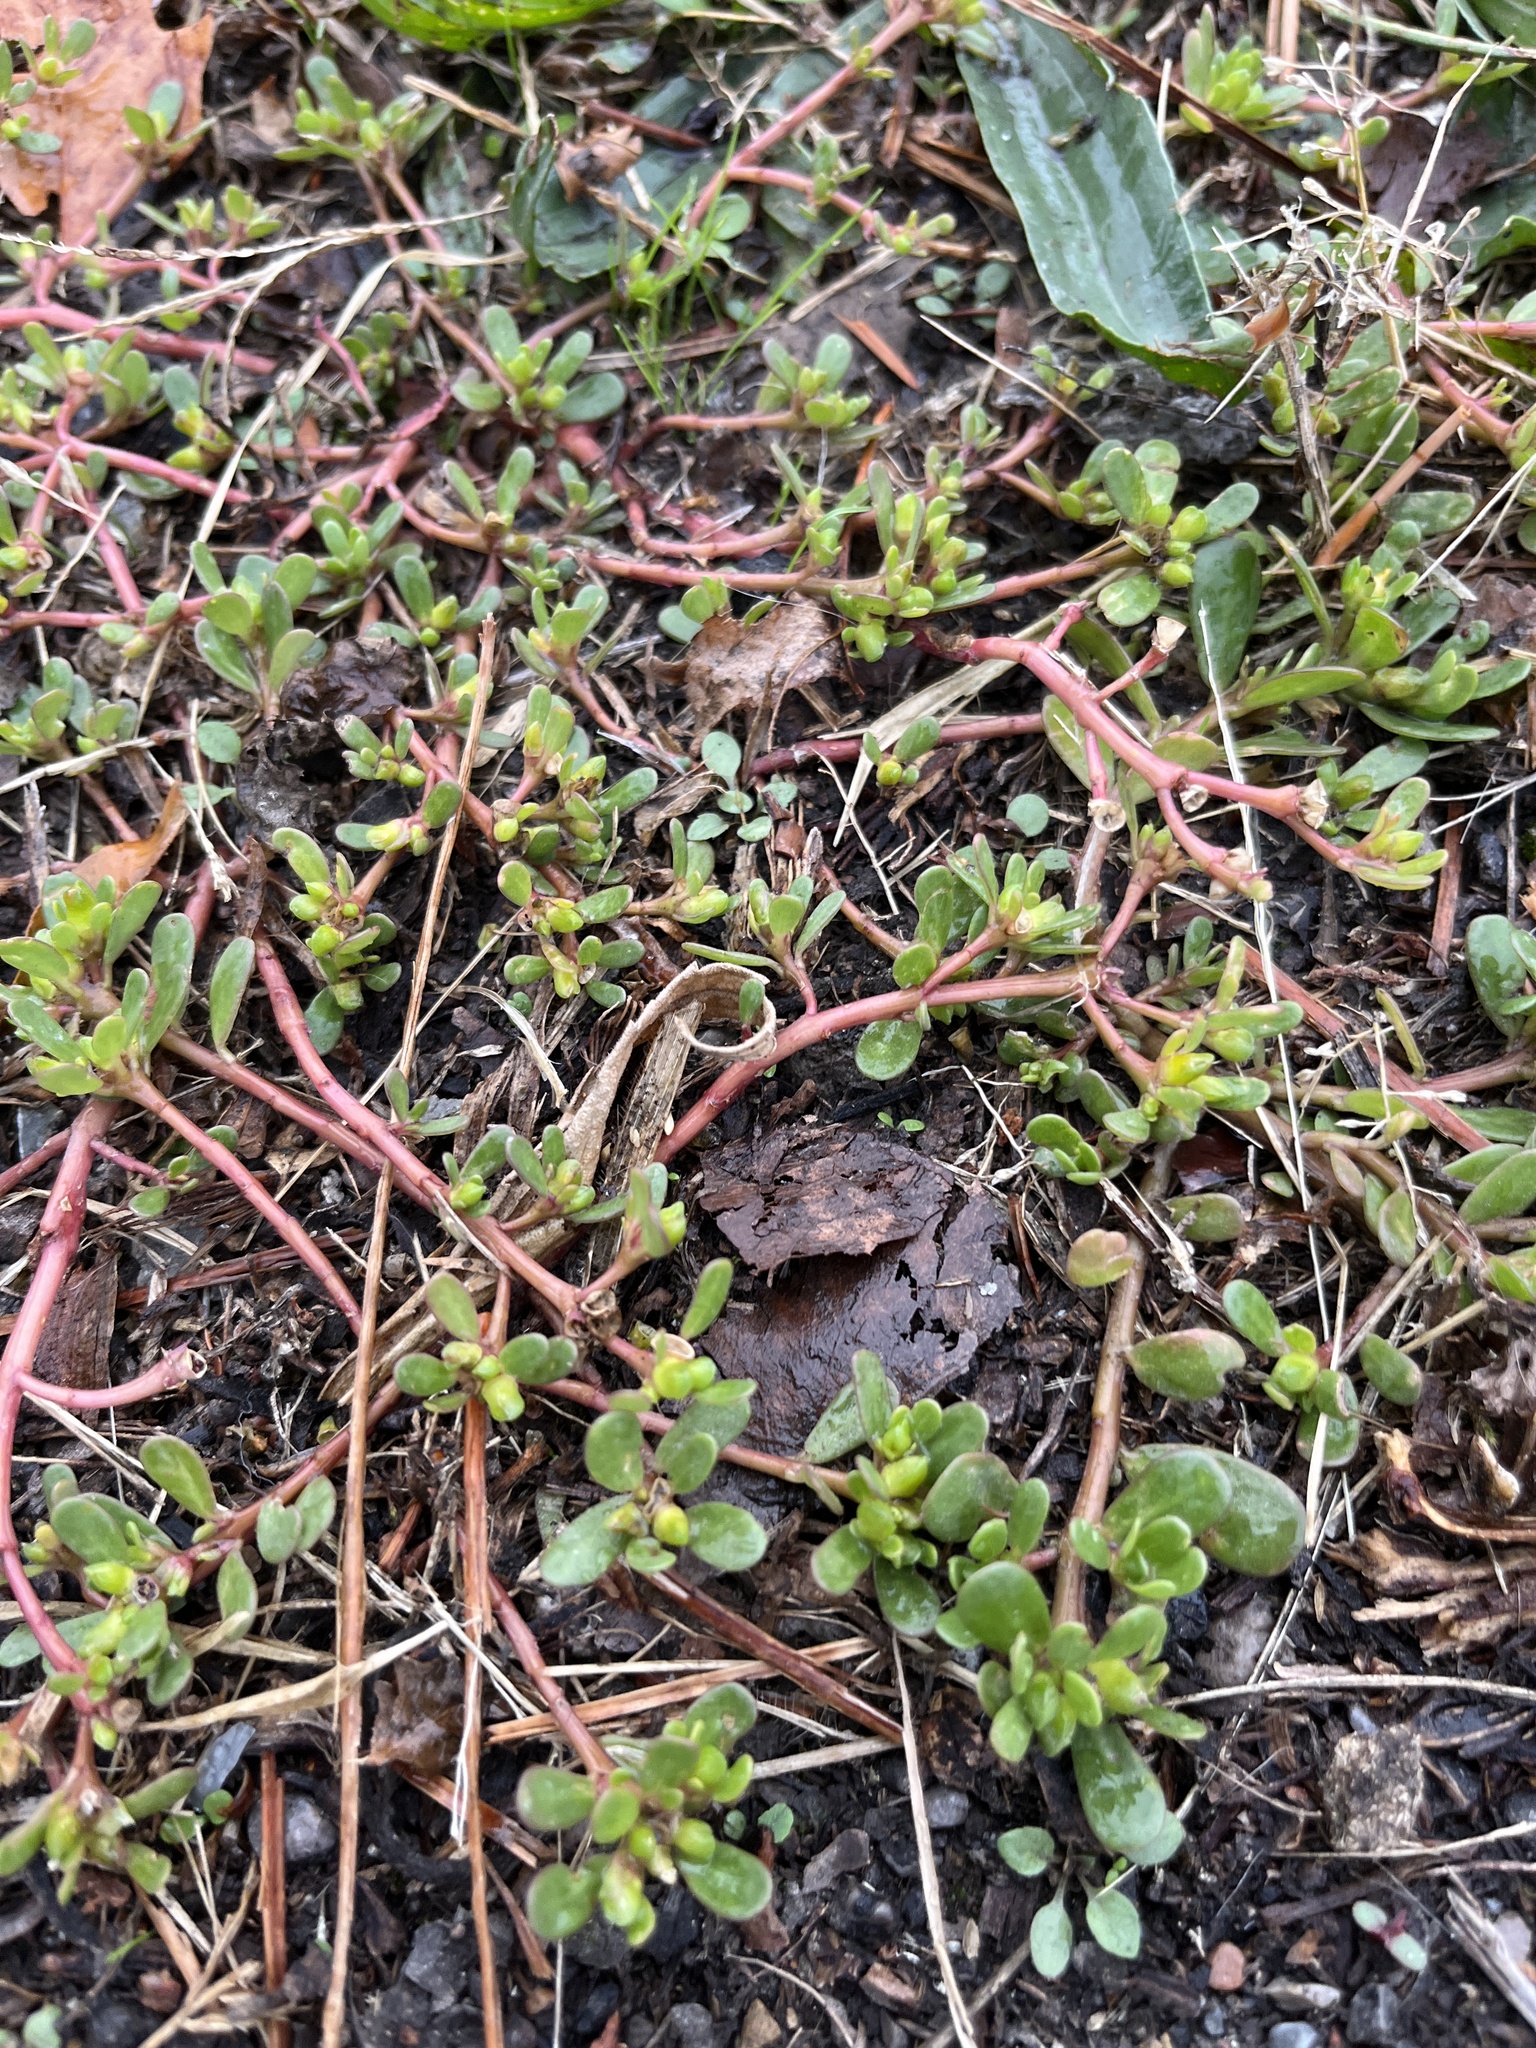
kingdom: Plantae
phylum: Tracheophyta
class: Magnoliopsida
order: Caryophyllales
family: Portulacaceae
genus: Portulaca
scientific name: Portulaca oleracea
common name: Common purslane
